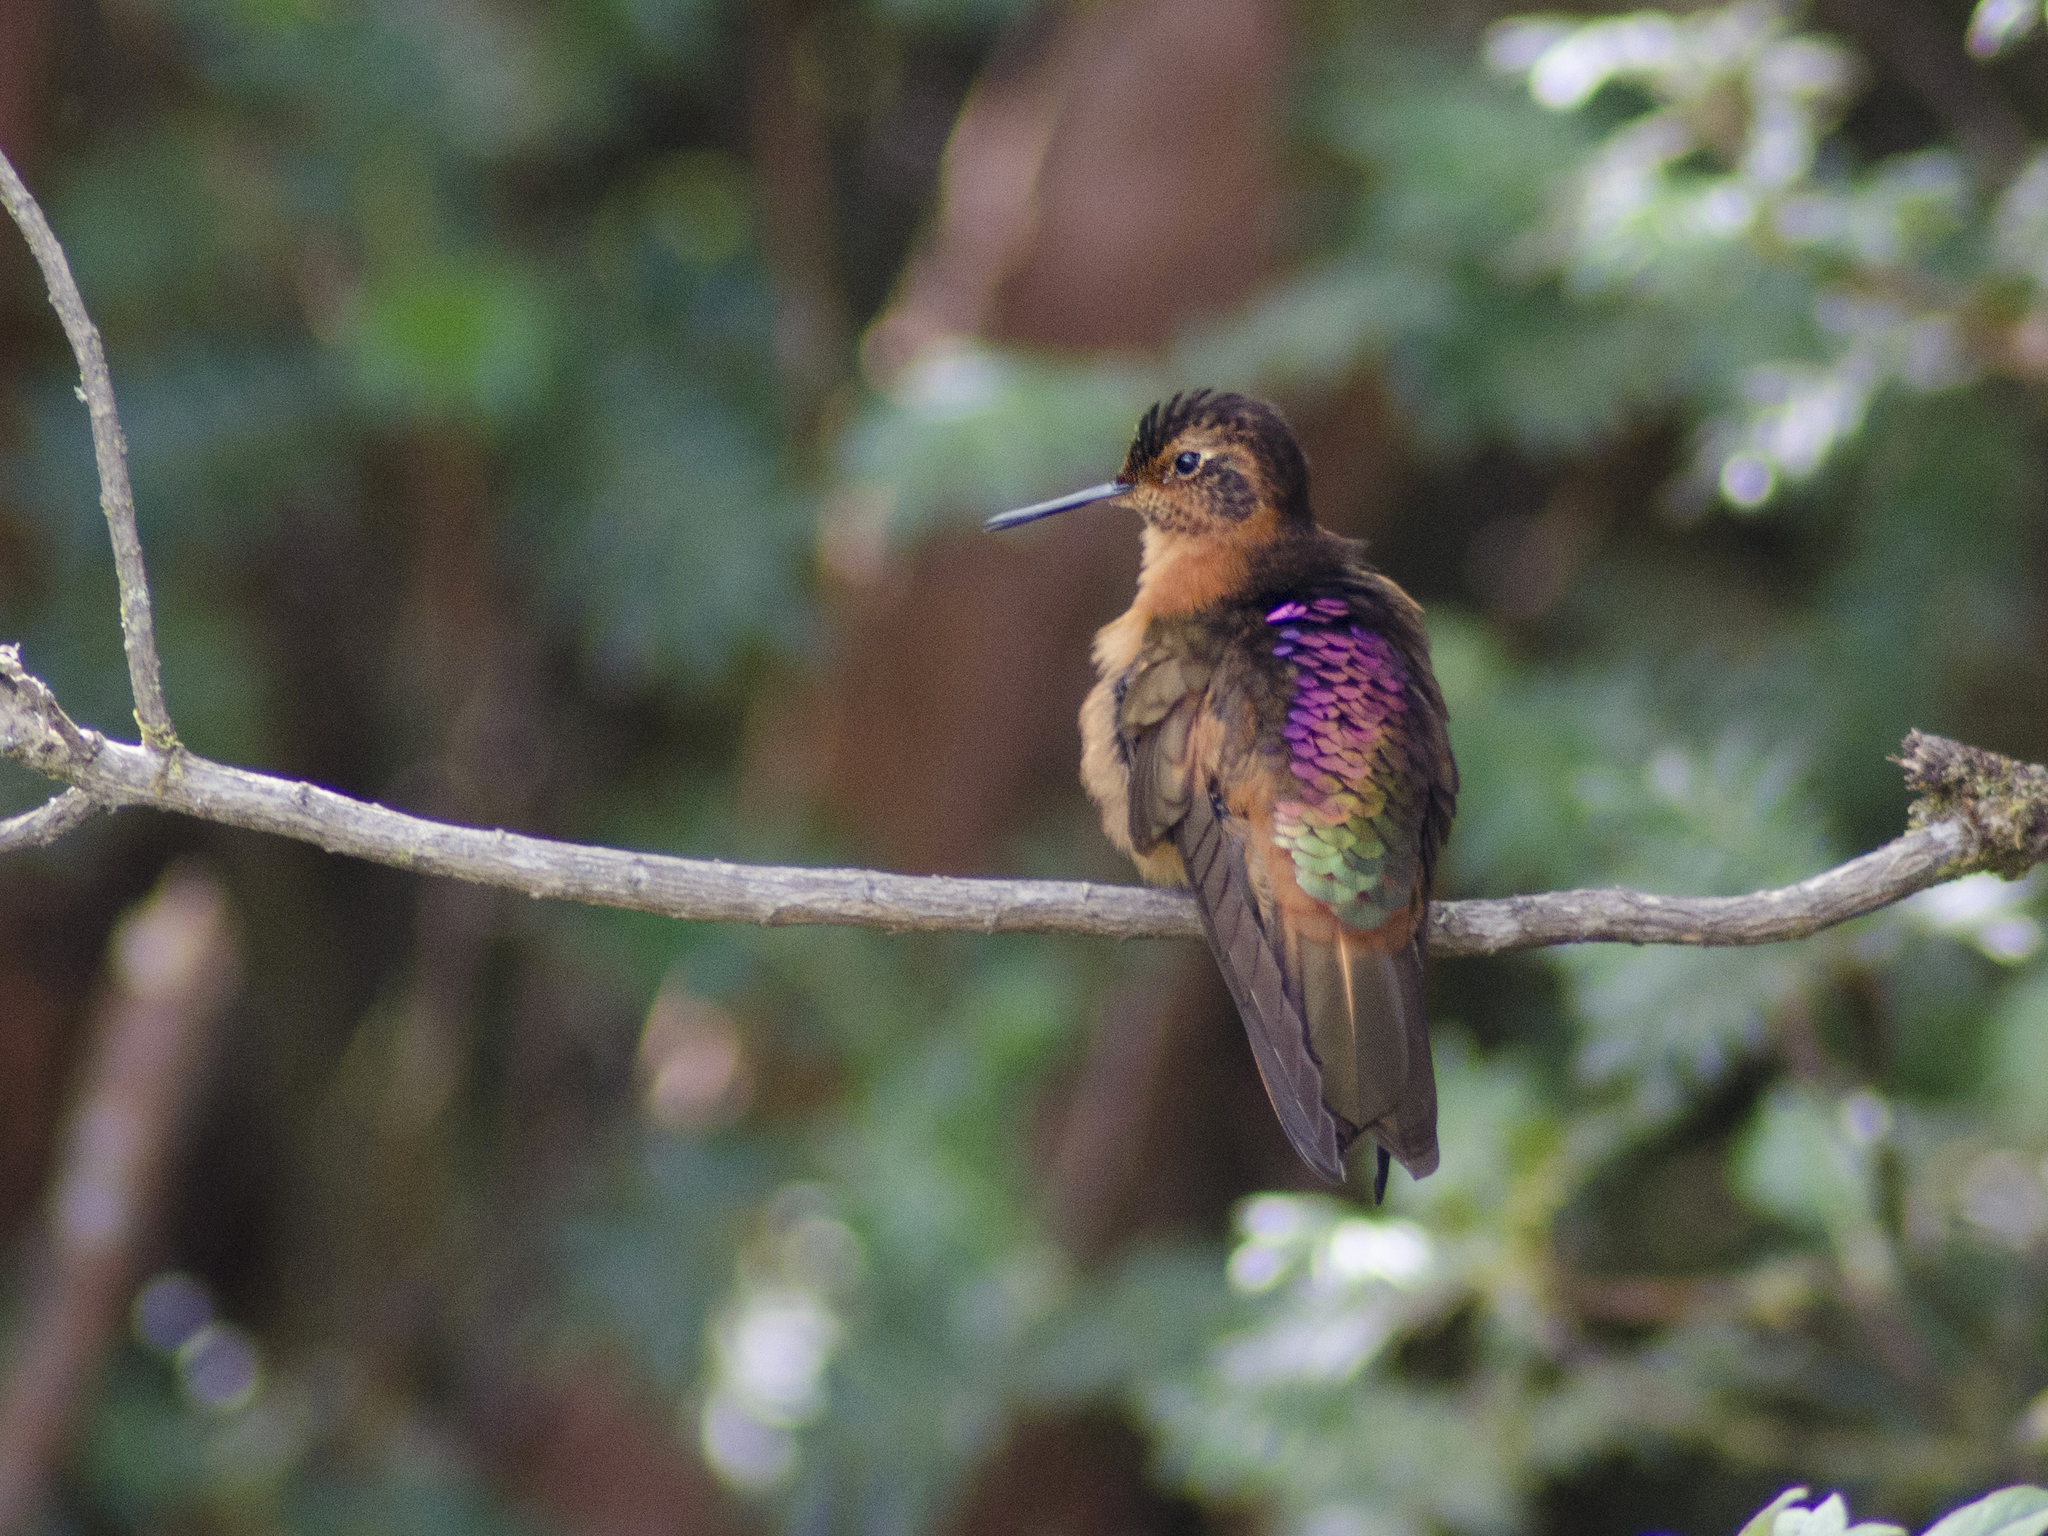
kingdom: Animalia
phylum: Chordata
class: Aves
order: Apodiformes
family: Trochilidae
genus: Aglaeactis
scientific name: Aglaeactis cupripennis
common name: Shining sunbeam
